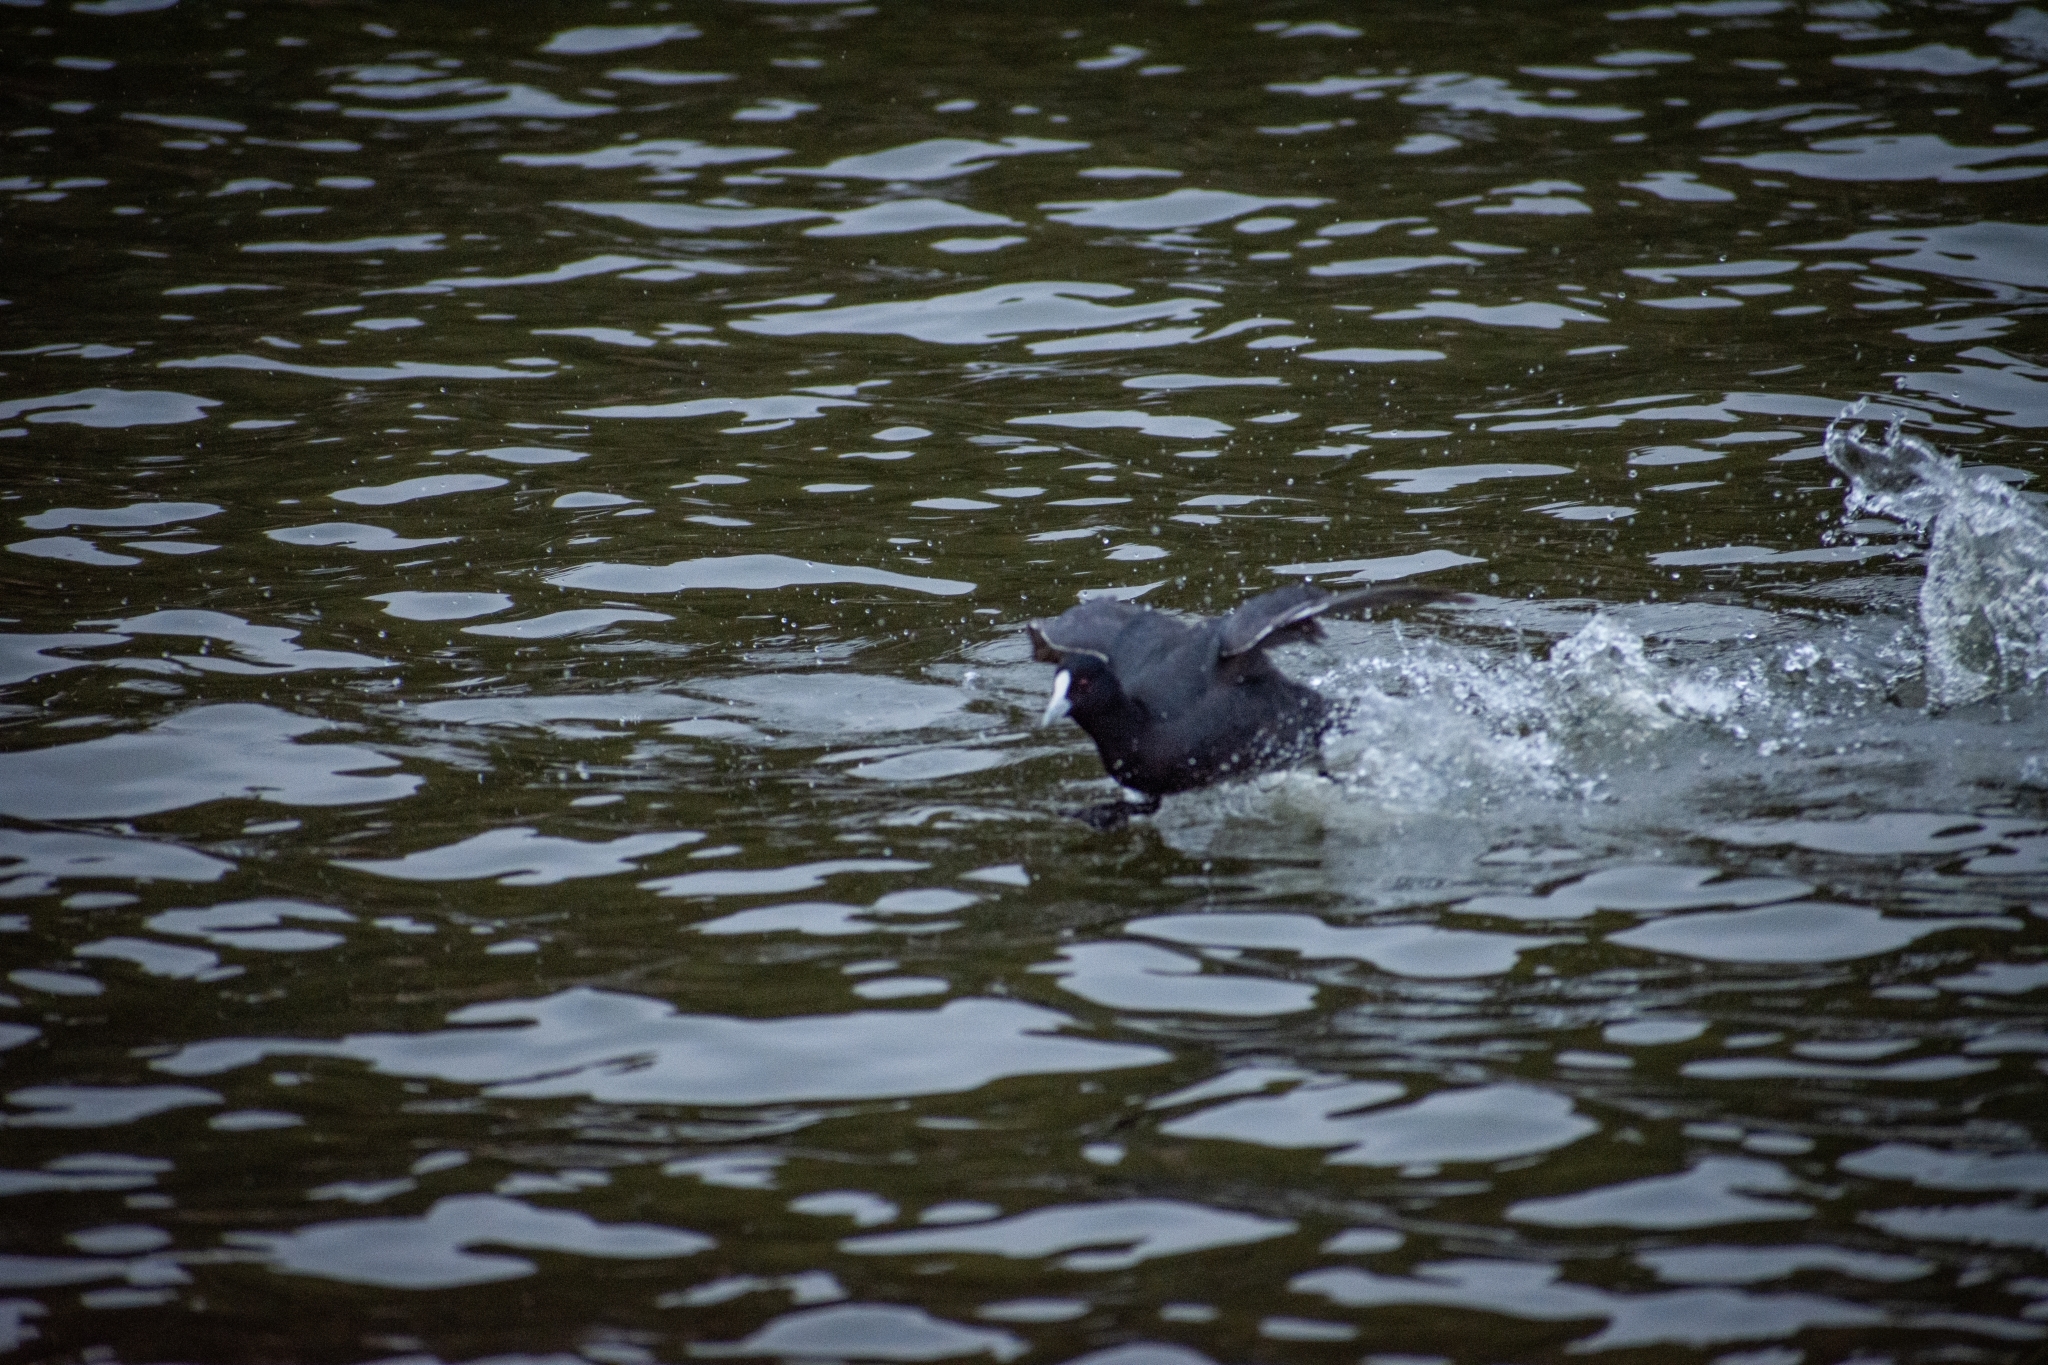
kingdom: Animalia
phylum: Chordata
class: Aves
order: Gruiformes
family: Rallidae
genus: Fulica
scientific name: Fulica atra
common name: Eurasian coot
